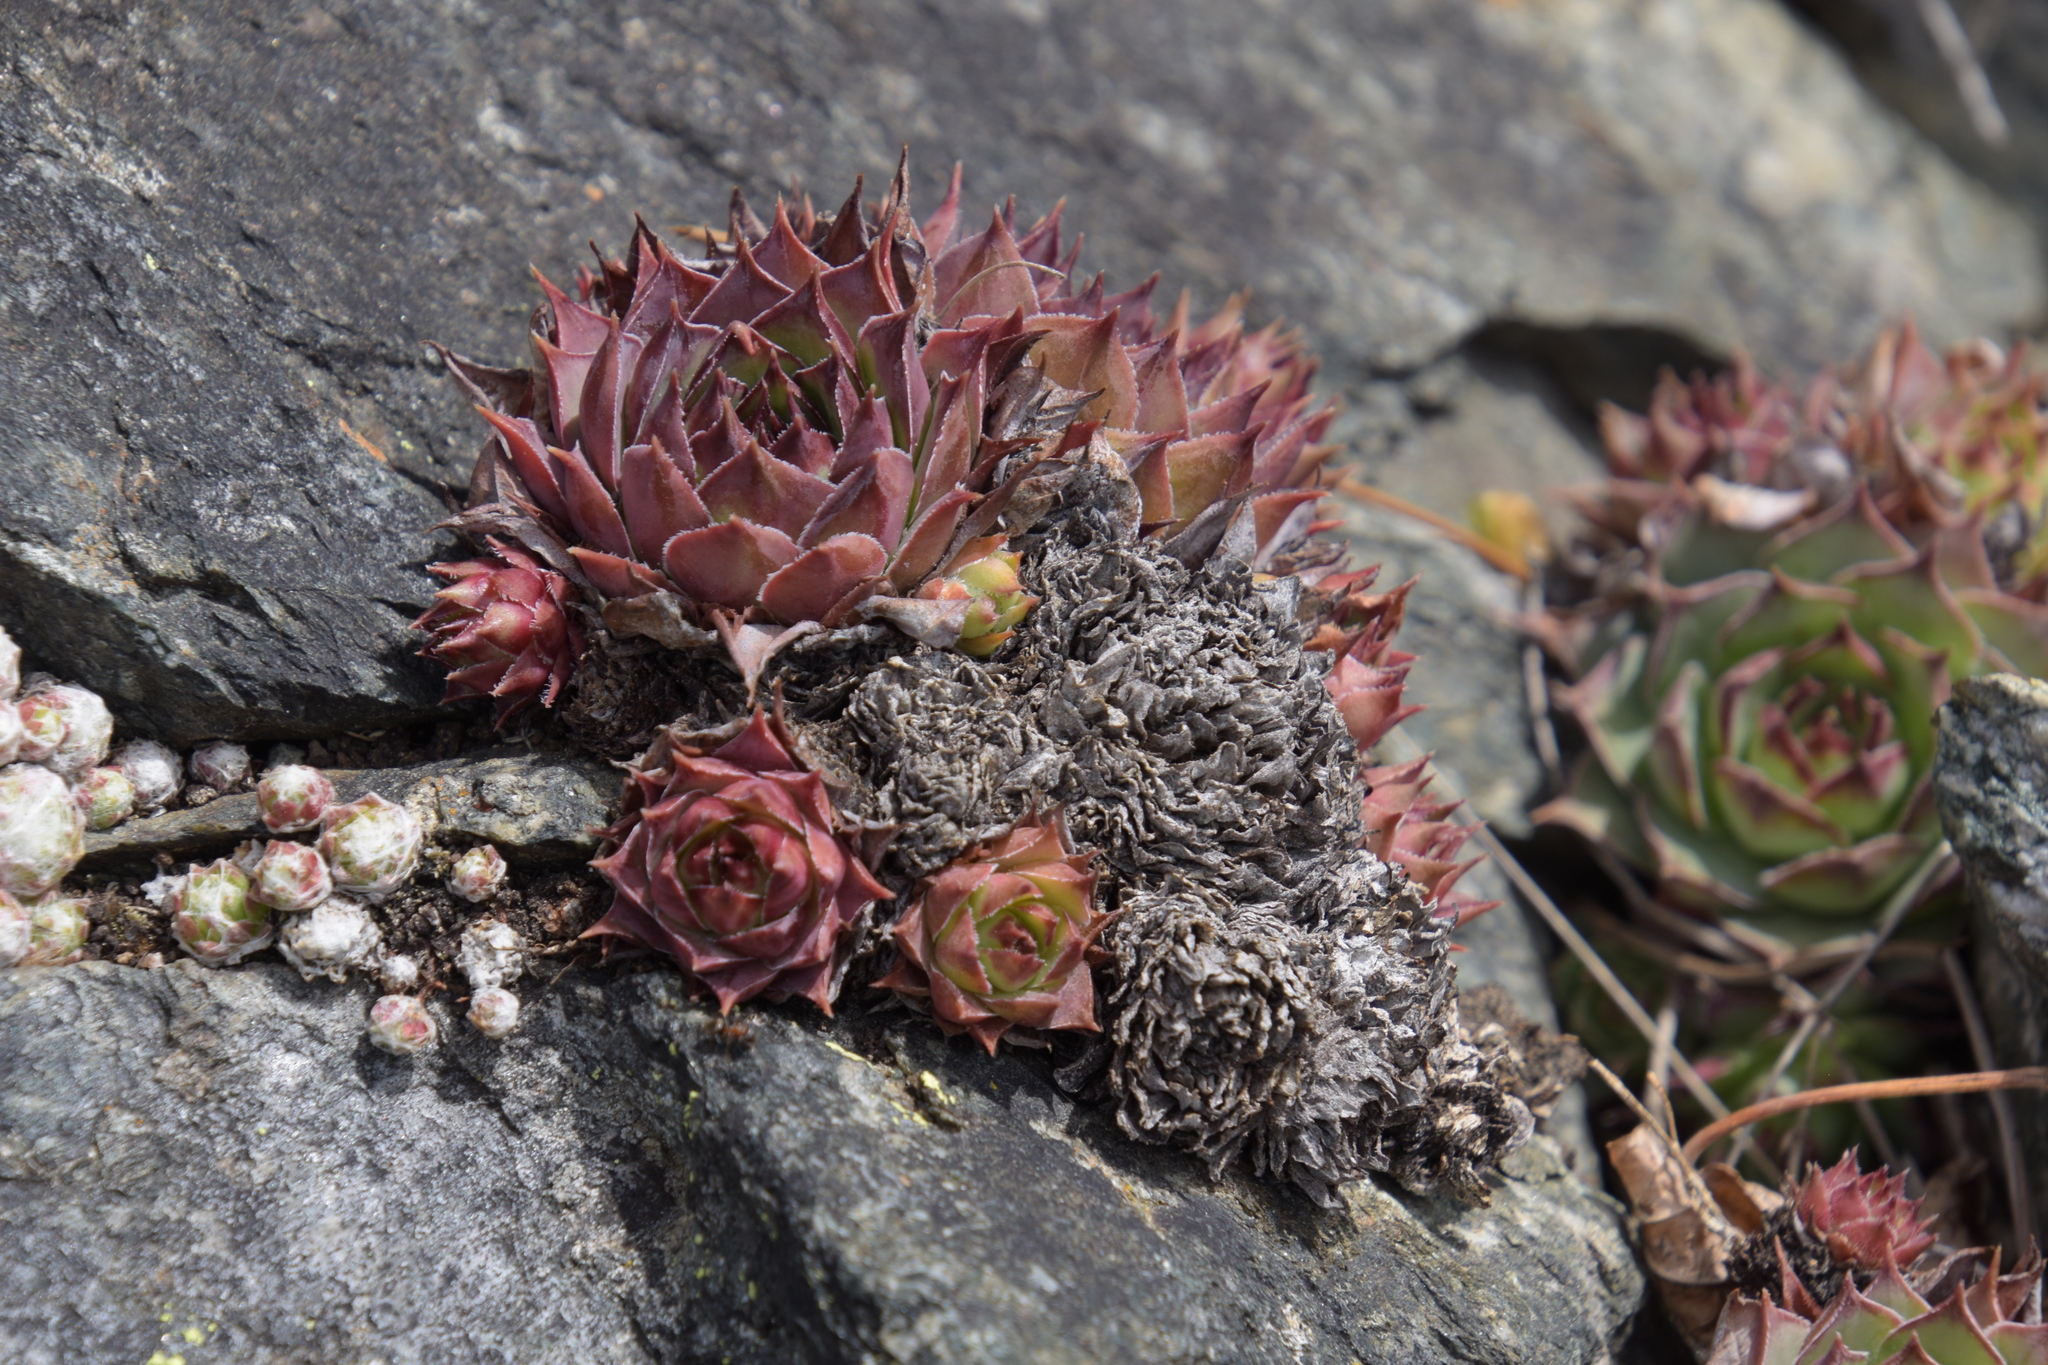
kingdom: Plantae
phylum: Tracheophyta
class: Magnoliopsida
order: Saxifragales
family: Crassulaceae
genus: Sempervivum
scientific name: Sempervivum tectorum
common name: House-leek
